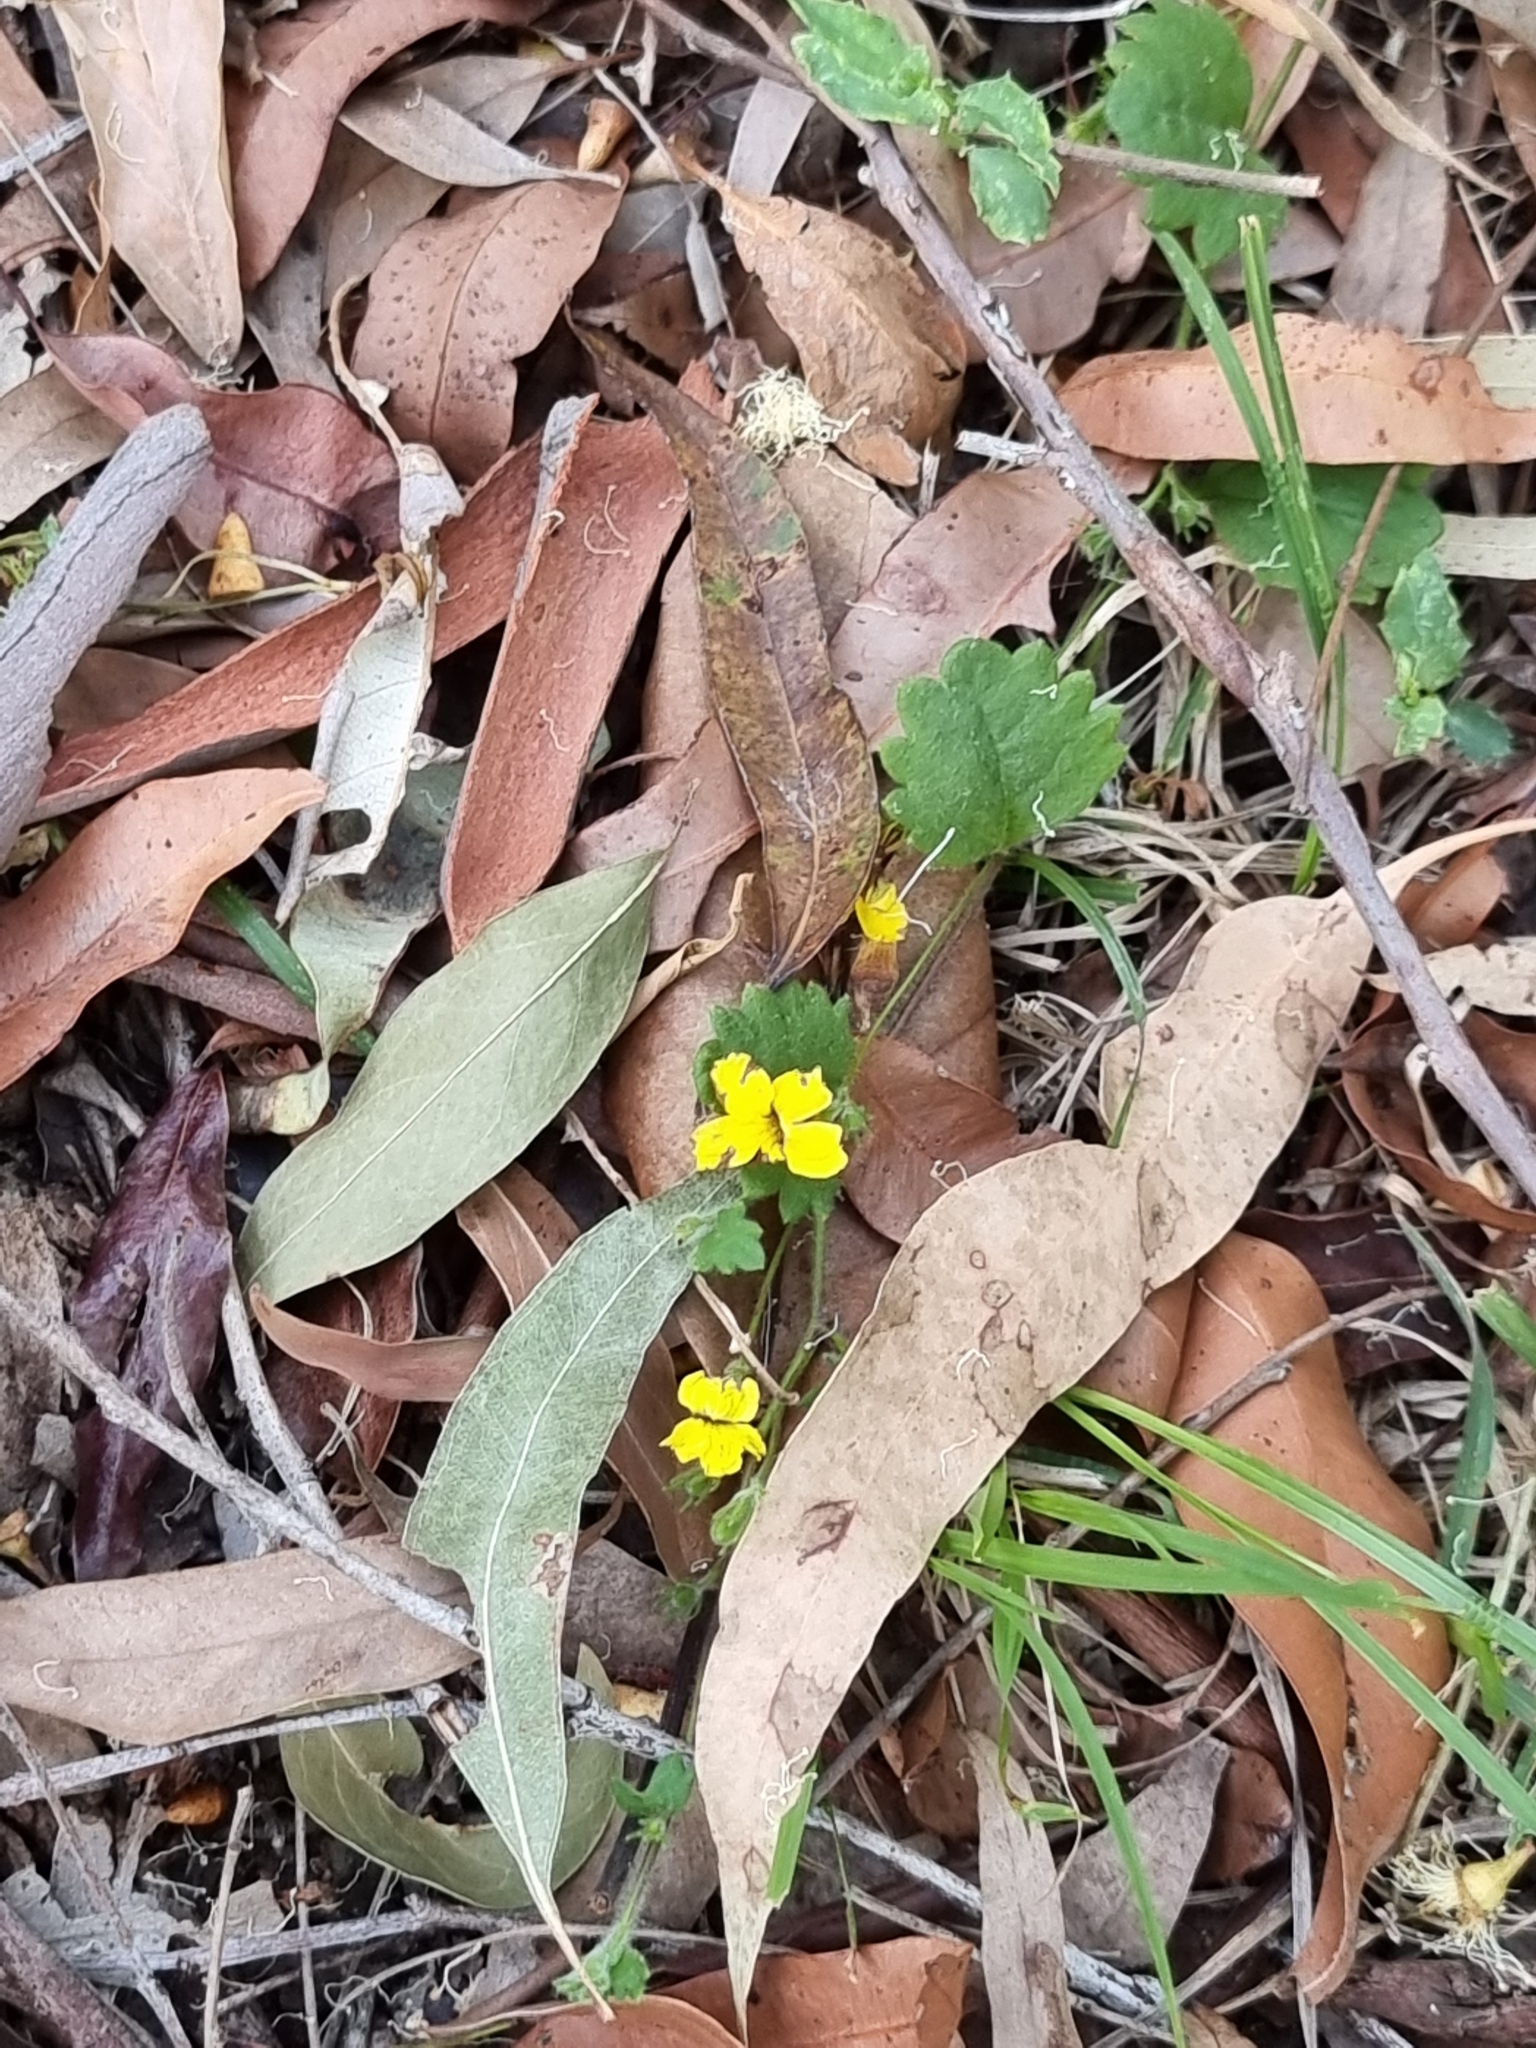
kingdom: Plantae
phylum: Tracheophyta
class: Magnoliopsida
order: Asterales
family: Goodeniaceae
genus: Goodenia
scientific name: Goodenia rotundifolia
